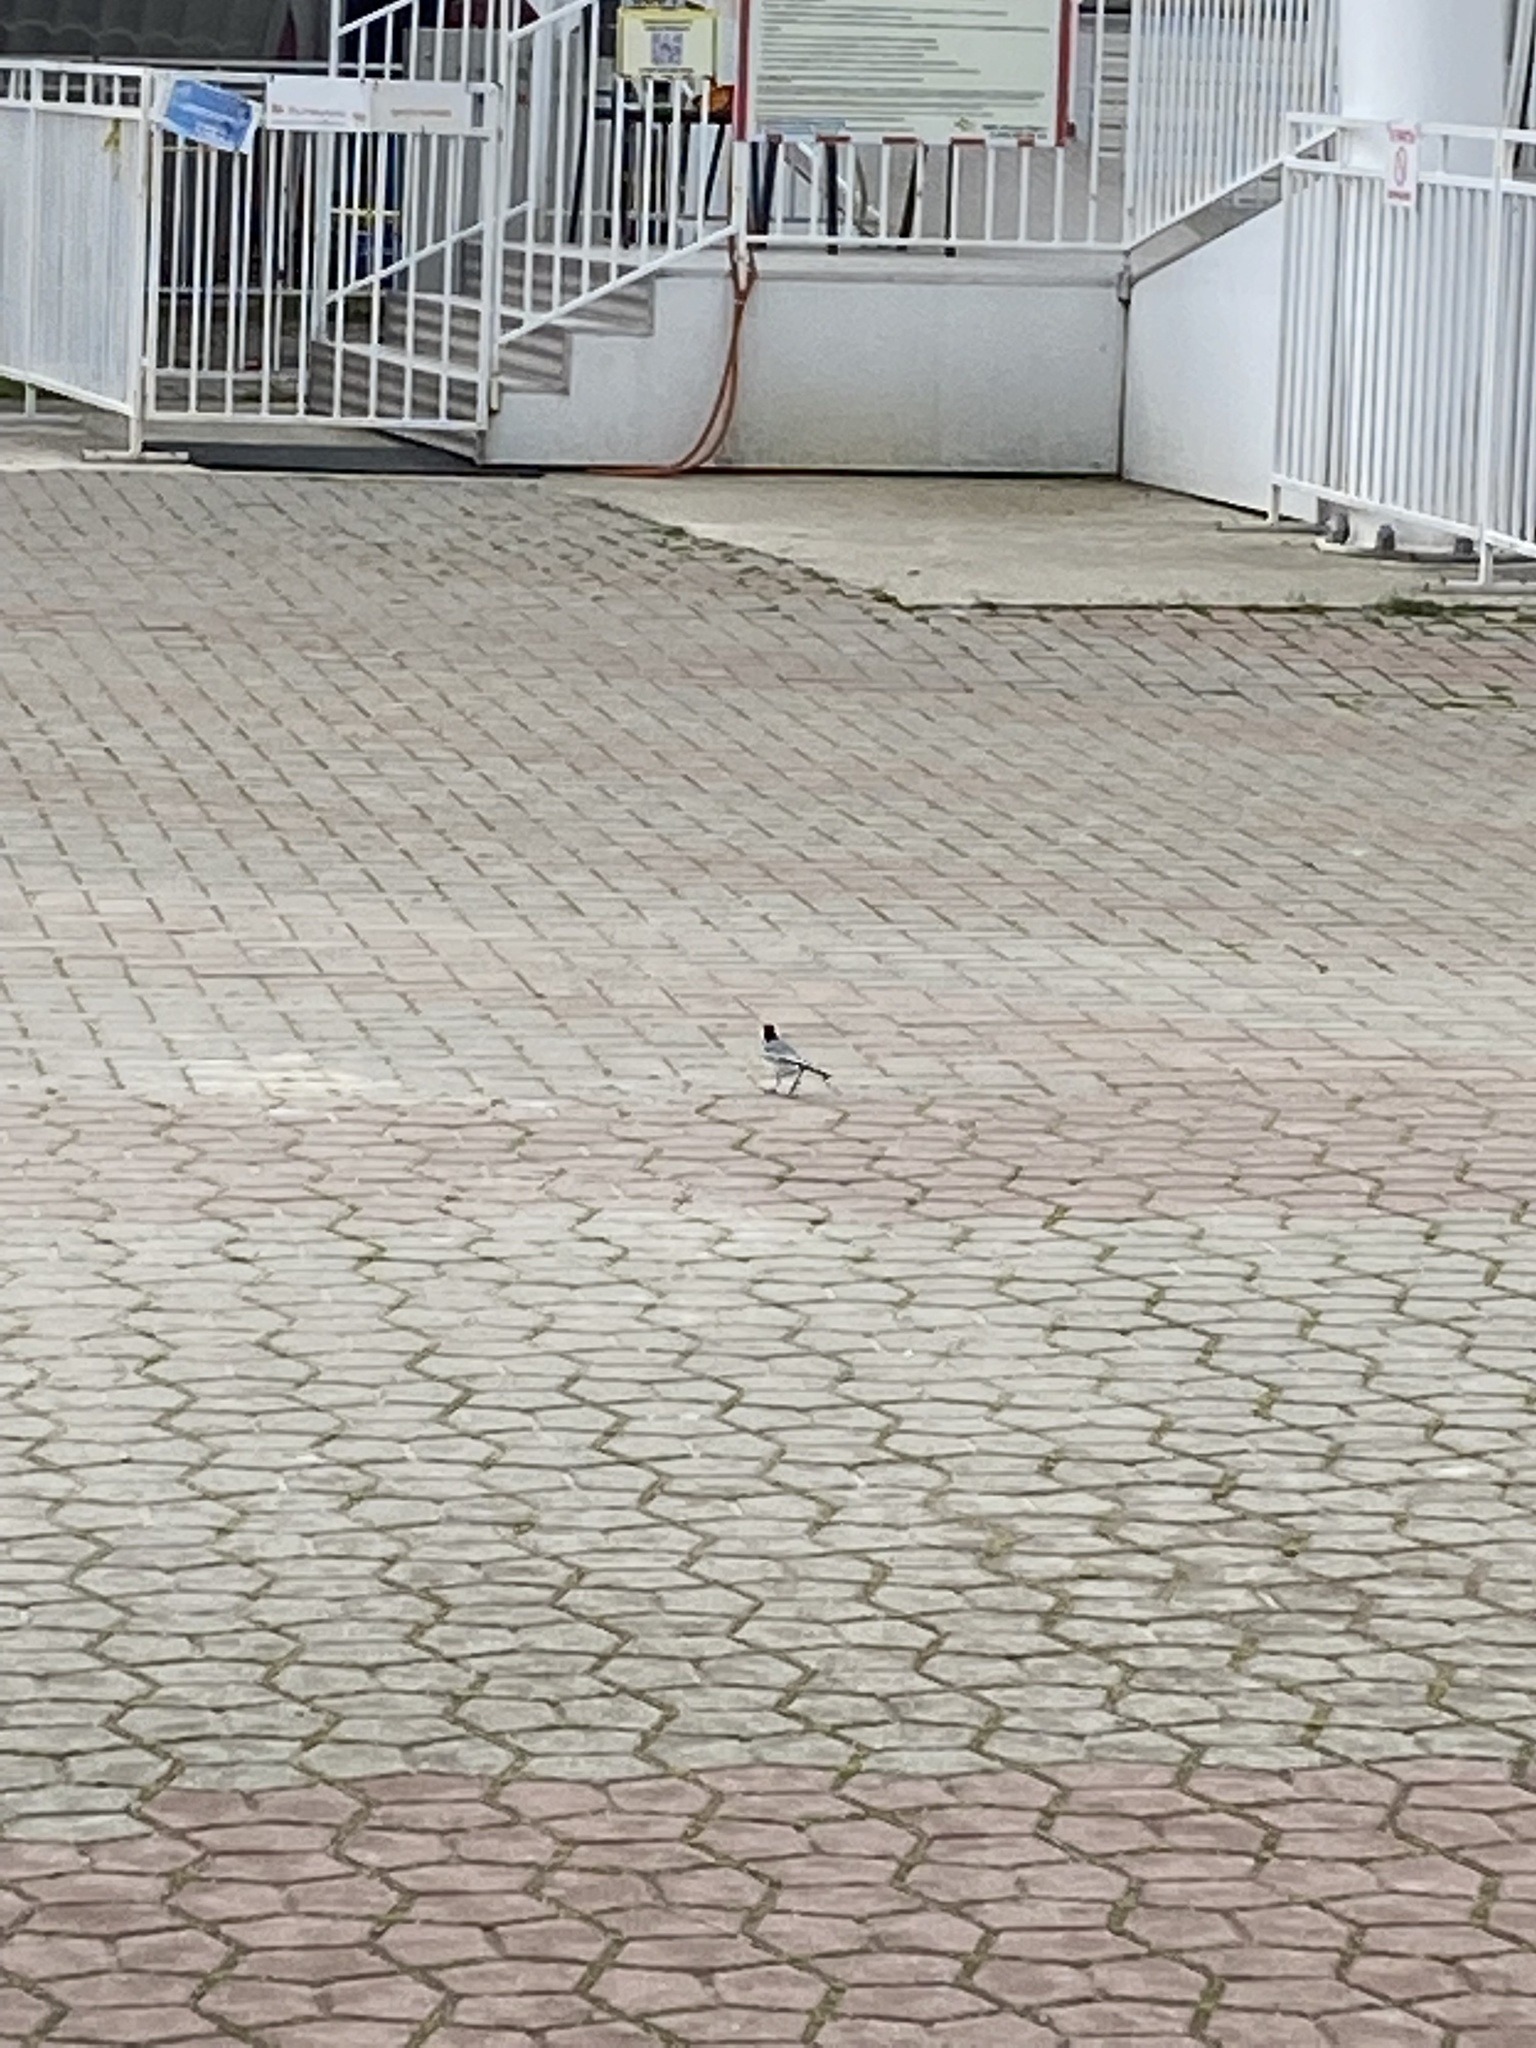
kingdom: Animalia
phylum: Chordata
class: Aves
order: Passeriformes
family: Motacillidae
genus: Motacilla
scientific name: Motacilla alba
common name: White wagtail
